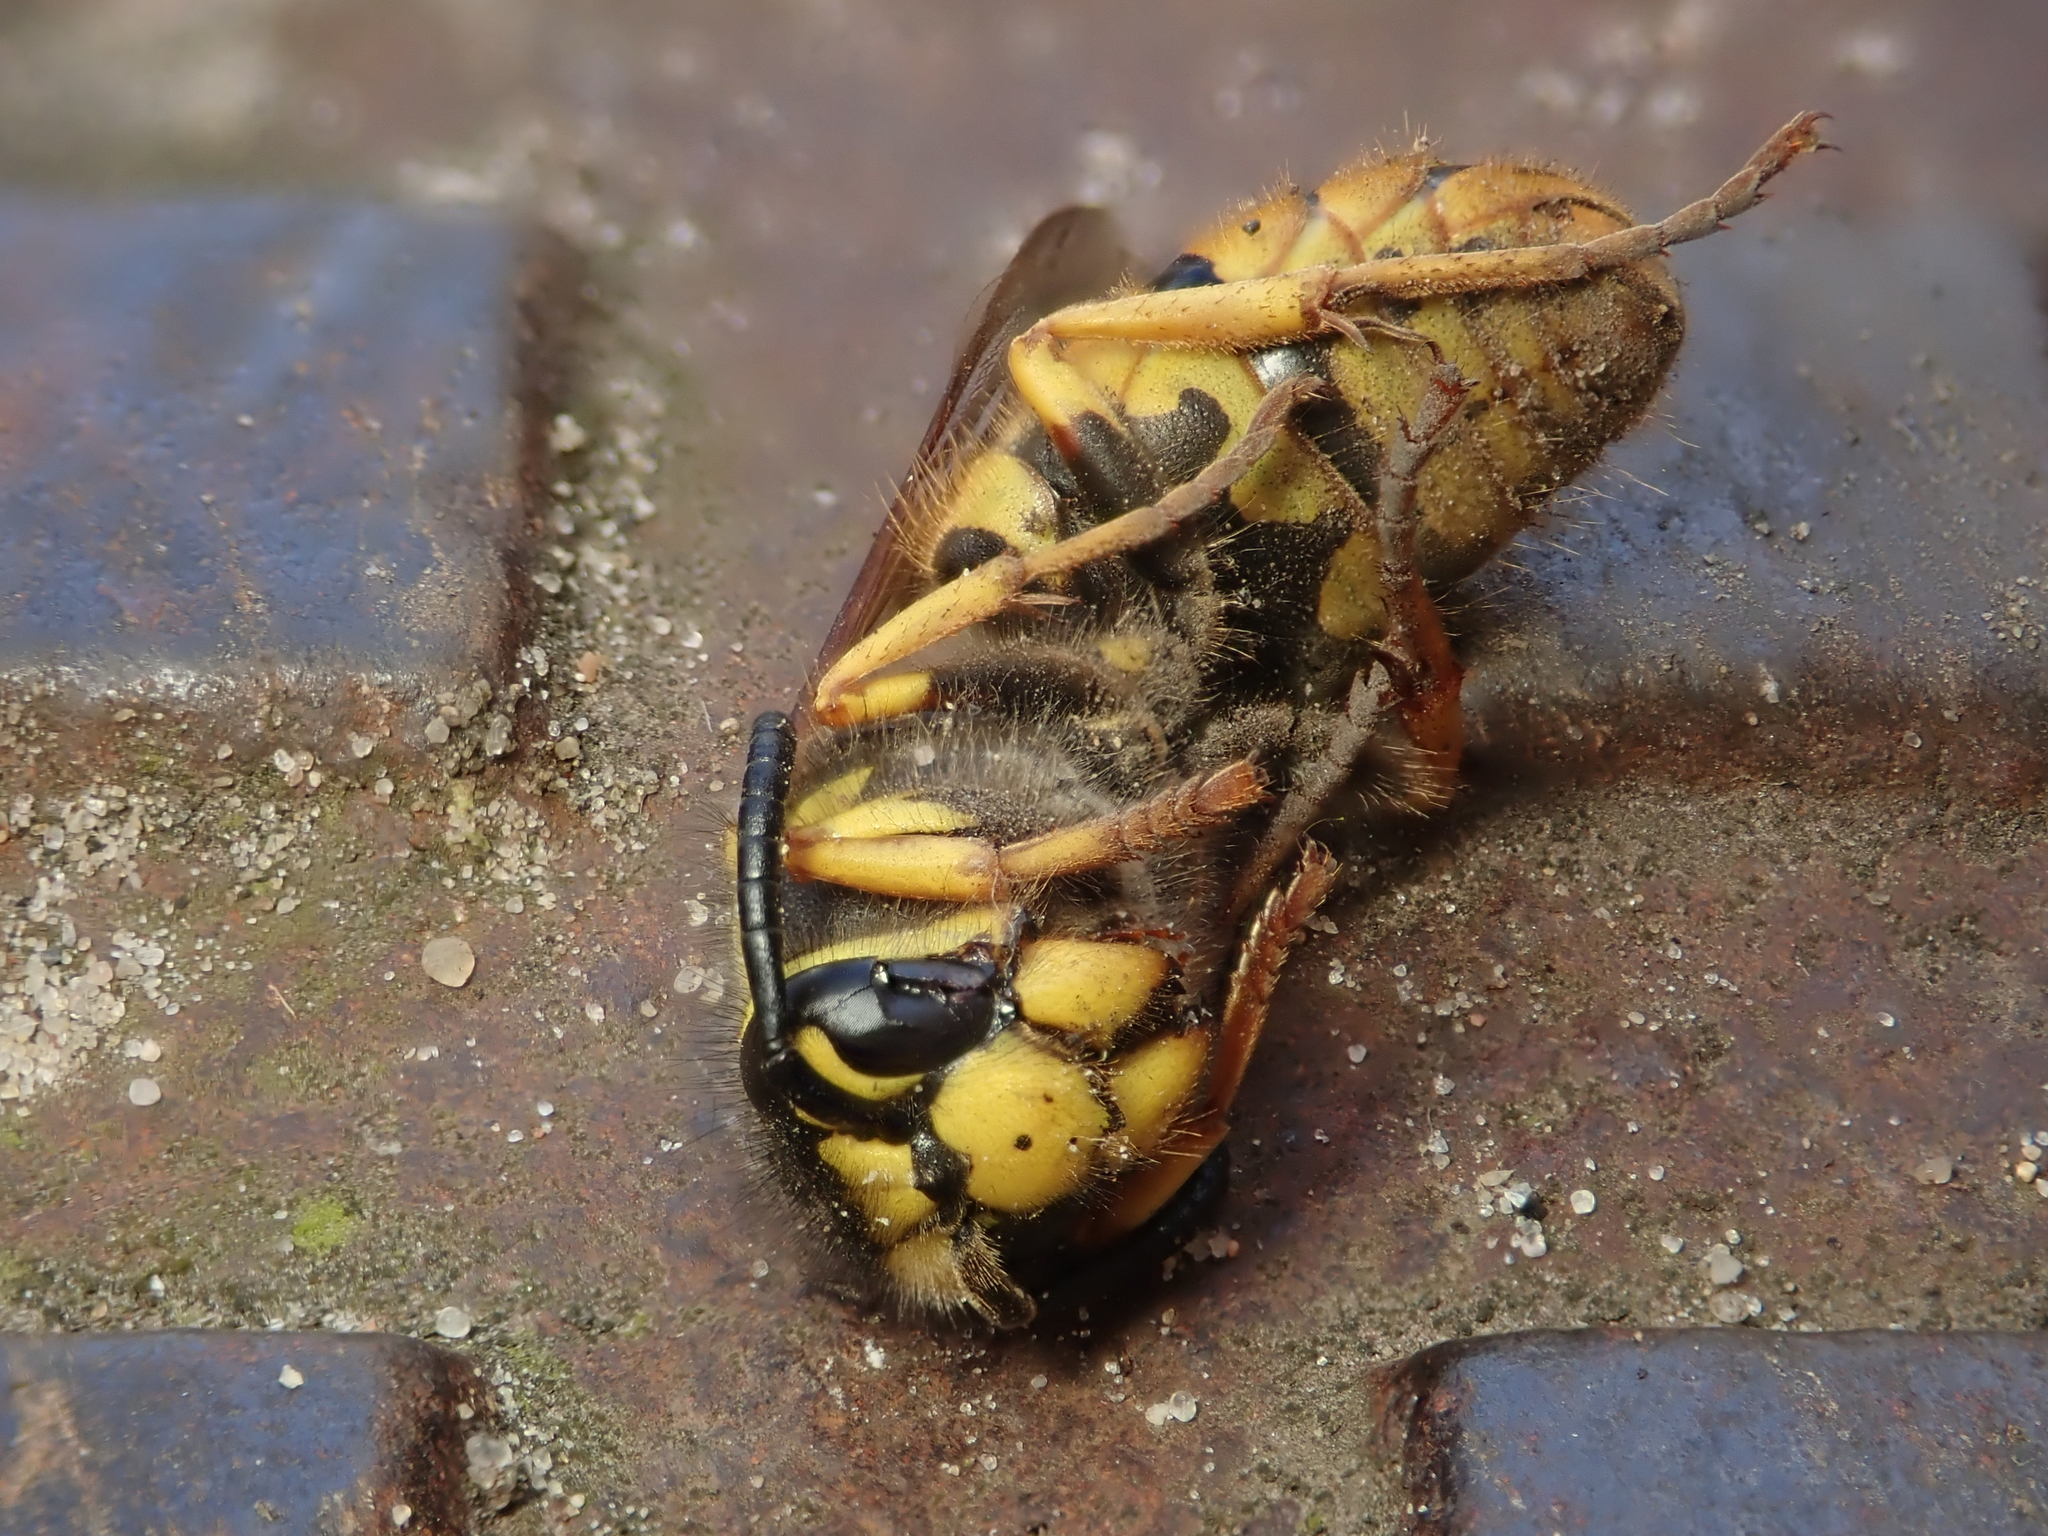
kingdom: Animalia
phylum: Arthropoda
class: Insecta
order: Hymenoptera
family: Vespidae
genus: Vespula
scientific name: Vespula germanica
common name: German wasp
